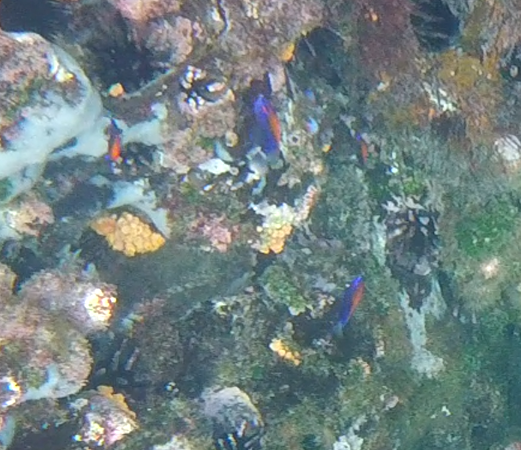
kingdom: Animalia
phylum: Chordata
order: Perciformes
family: Pomacentridae
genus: Stegastes
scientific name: Stegastes beebei
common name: Galapagos ringtail damselfish
